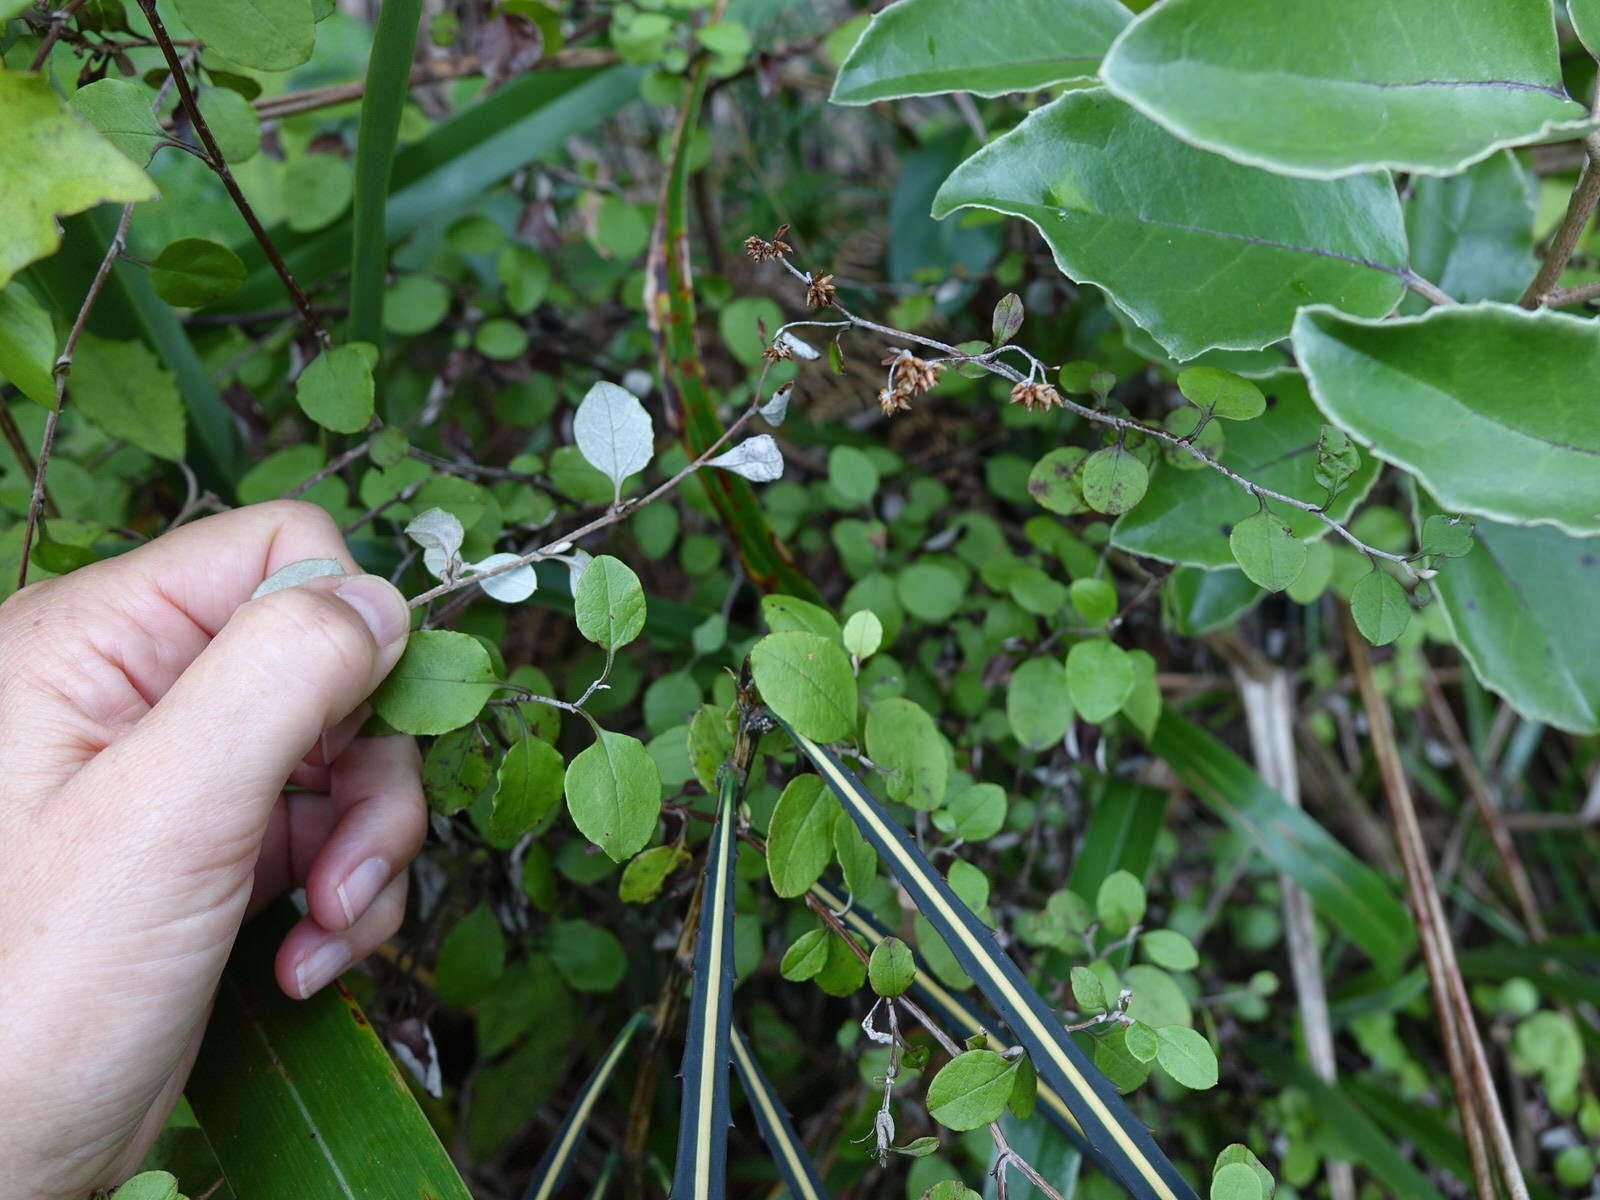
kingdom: Plantae
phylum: Tracheophyta
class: Magnoliopsida
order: Asterales
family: Asteraceae
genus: Ozothamnus
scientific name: Ozothamnus glomeratus
